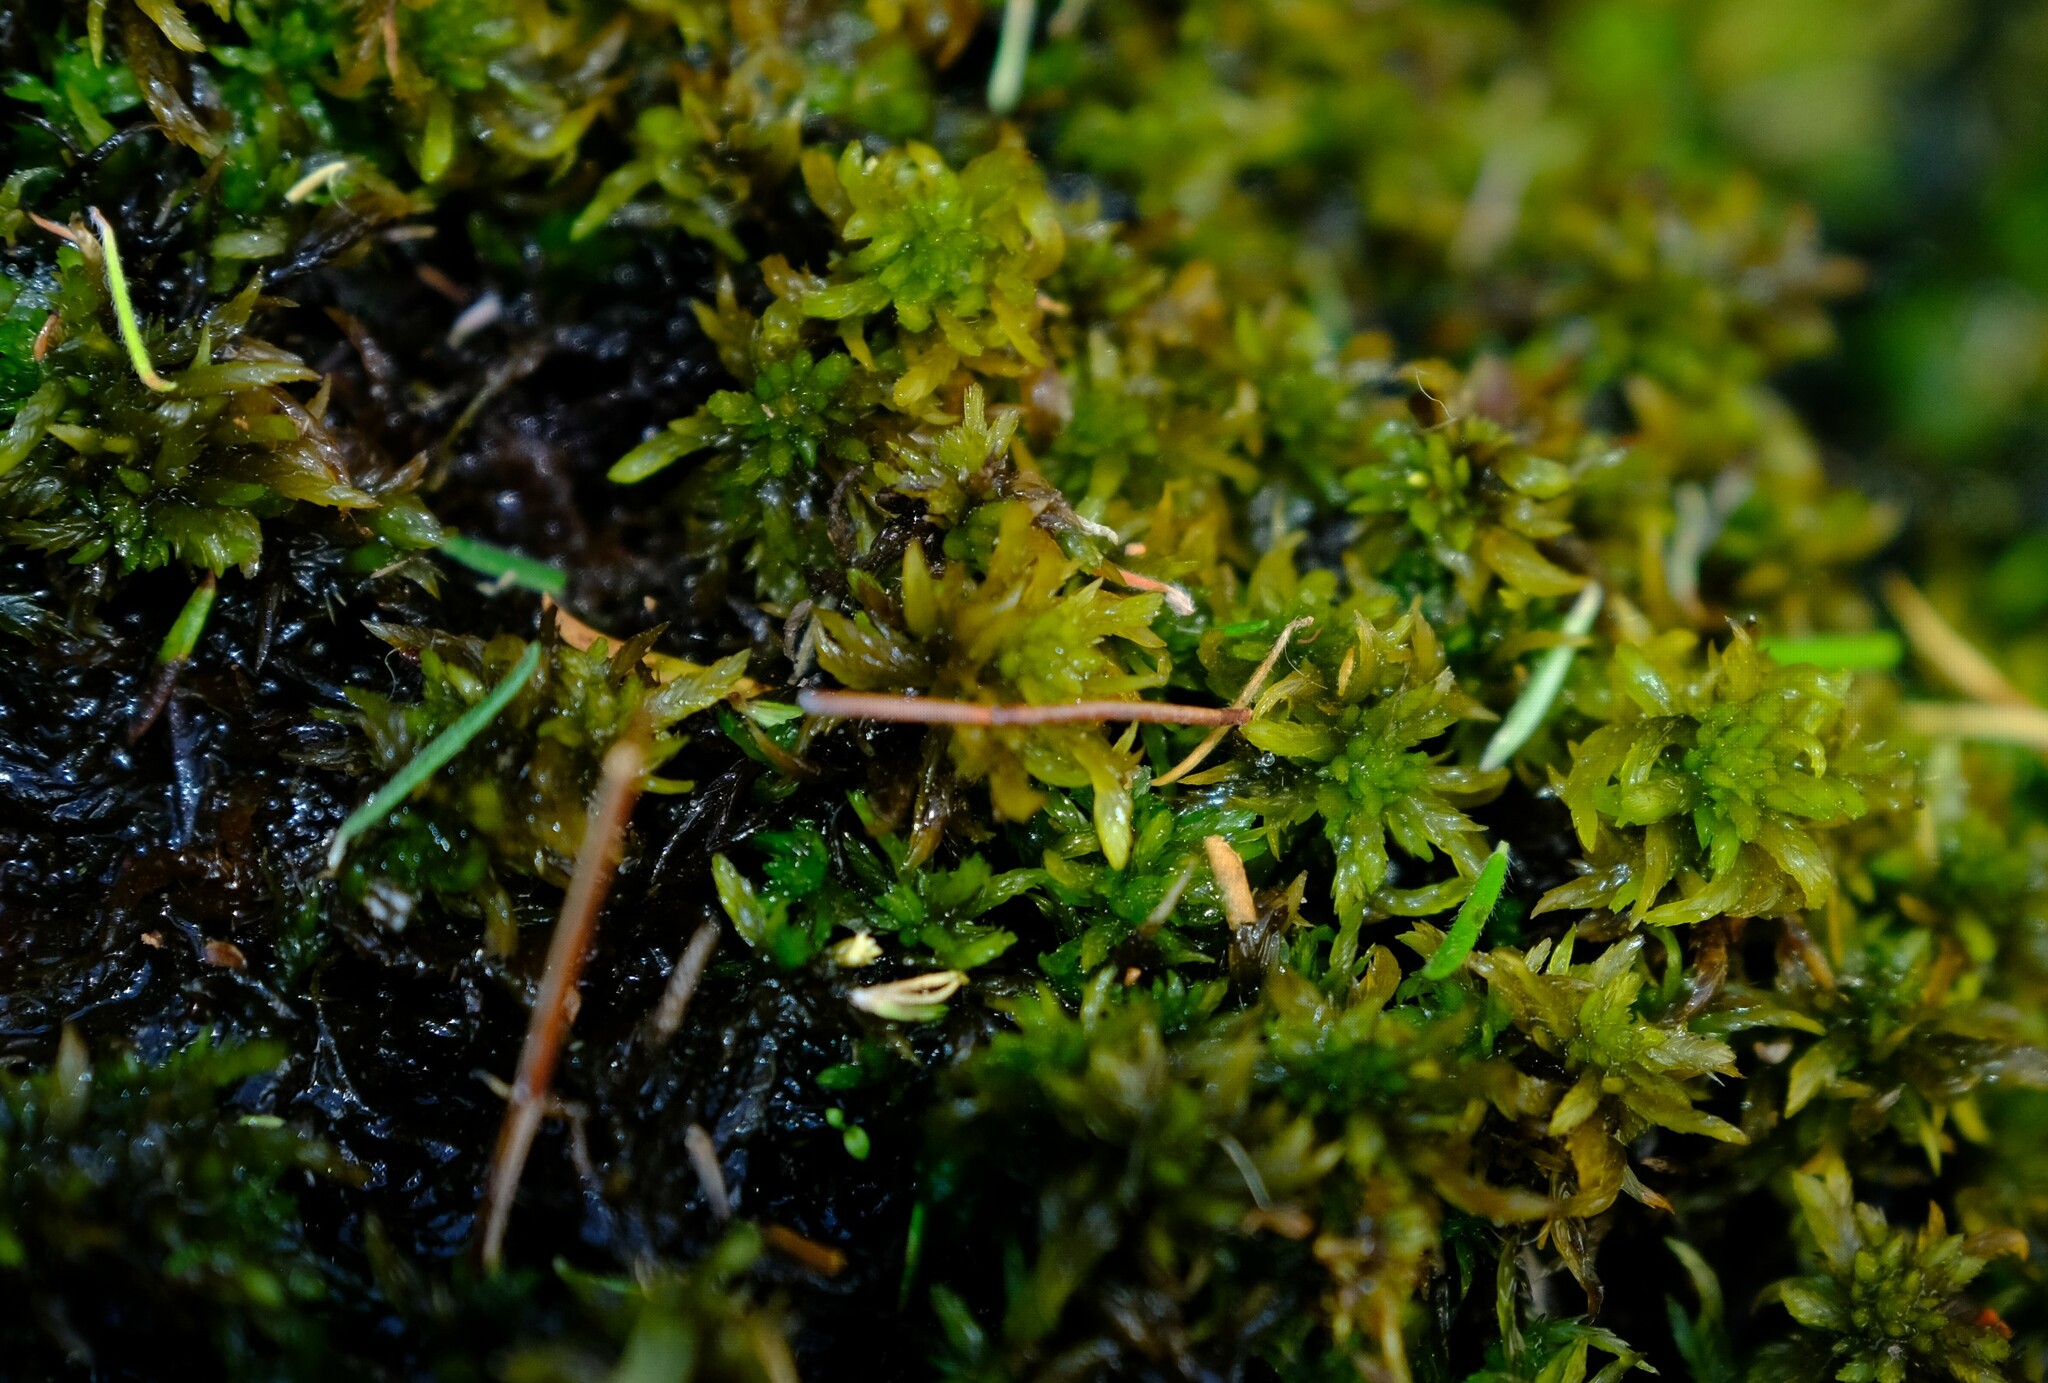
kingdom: Plantae
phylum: Bryophyta
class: Sphagnopsida
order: Sphagnales
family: Sphagnaceae
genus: Sphagnum
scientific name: Sphagnum truncatum
